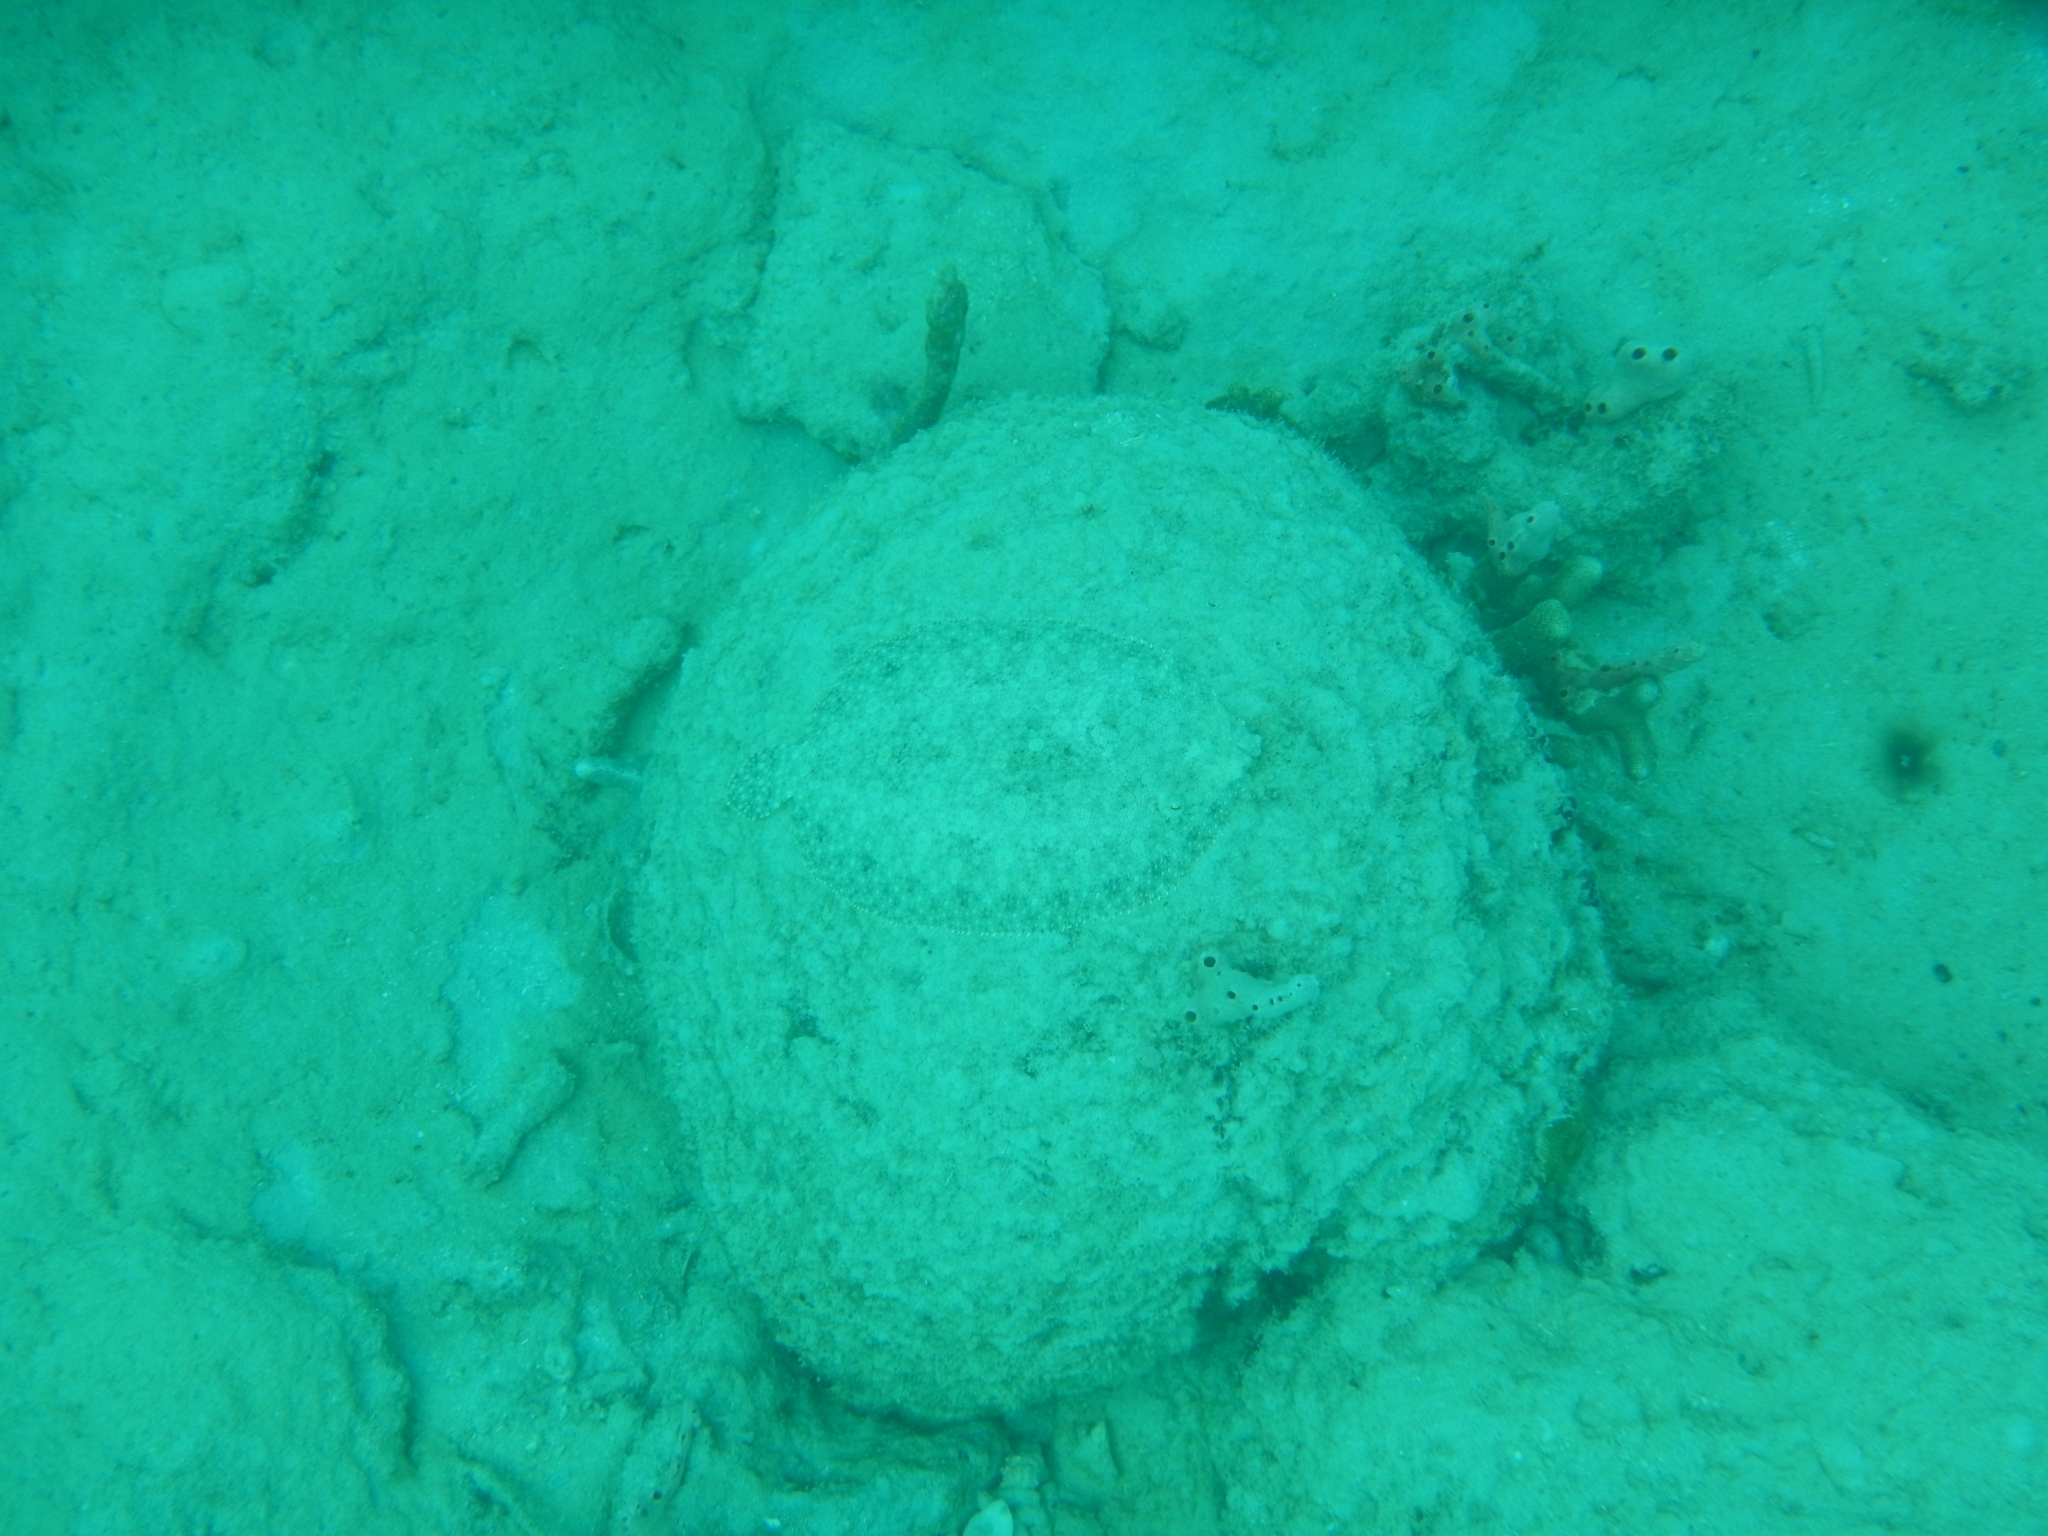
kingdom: Animalia
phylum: Chordata
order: Pleuronectiformes
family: Bothidae
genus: Bothus
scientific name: Bothus lunatus
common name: Peacock flounder
